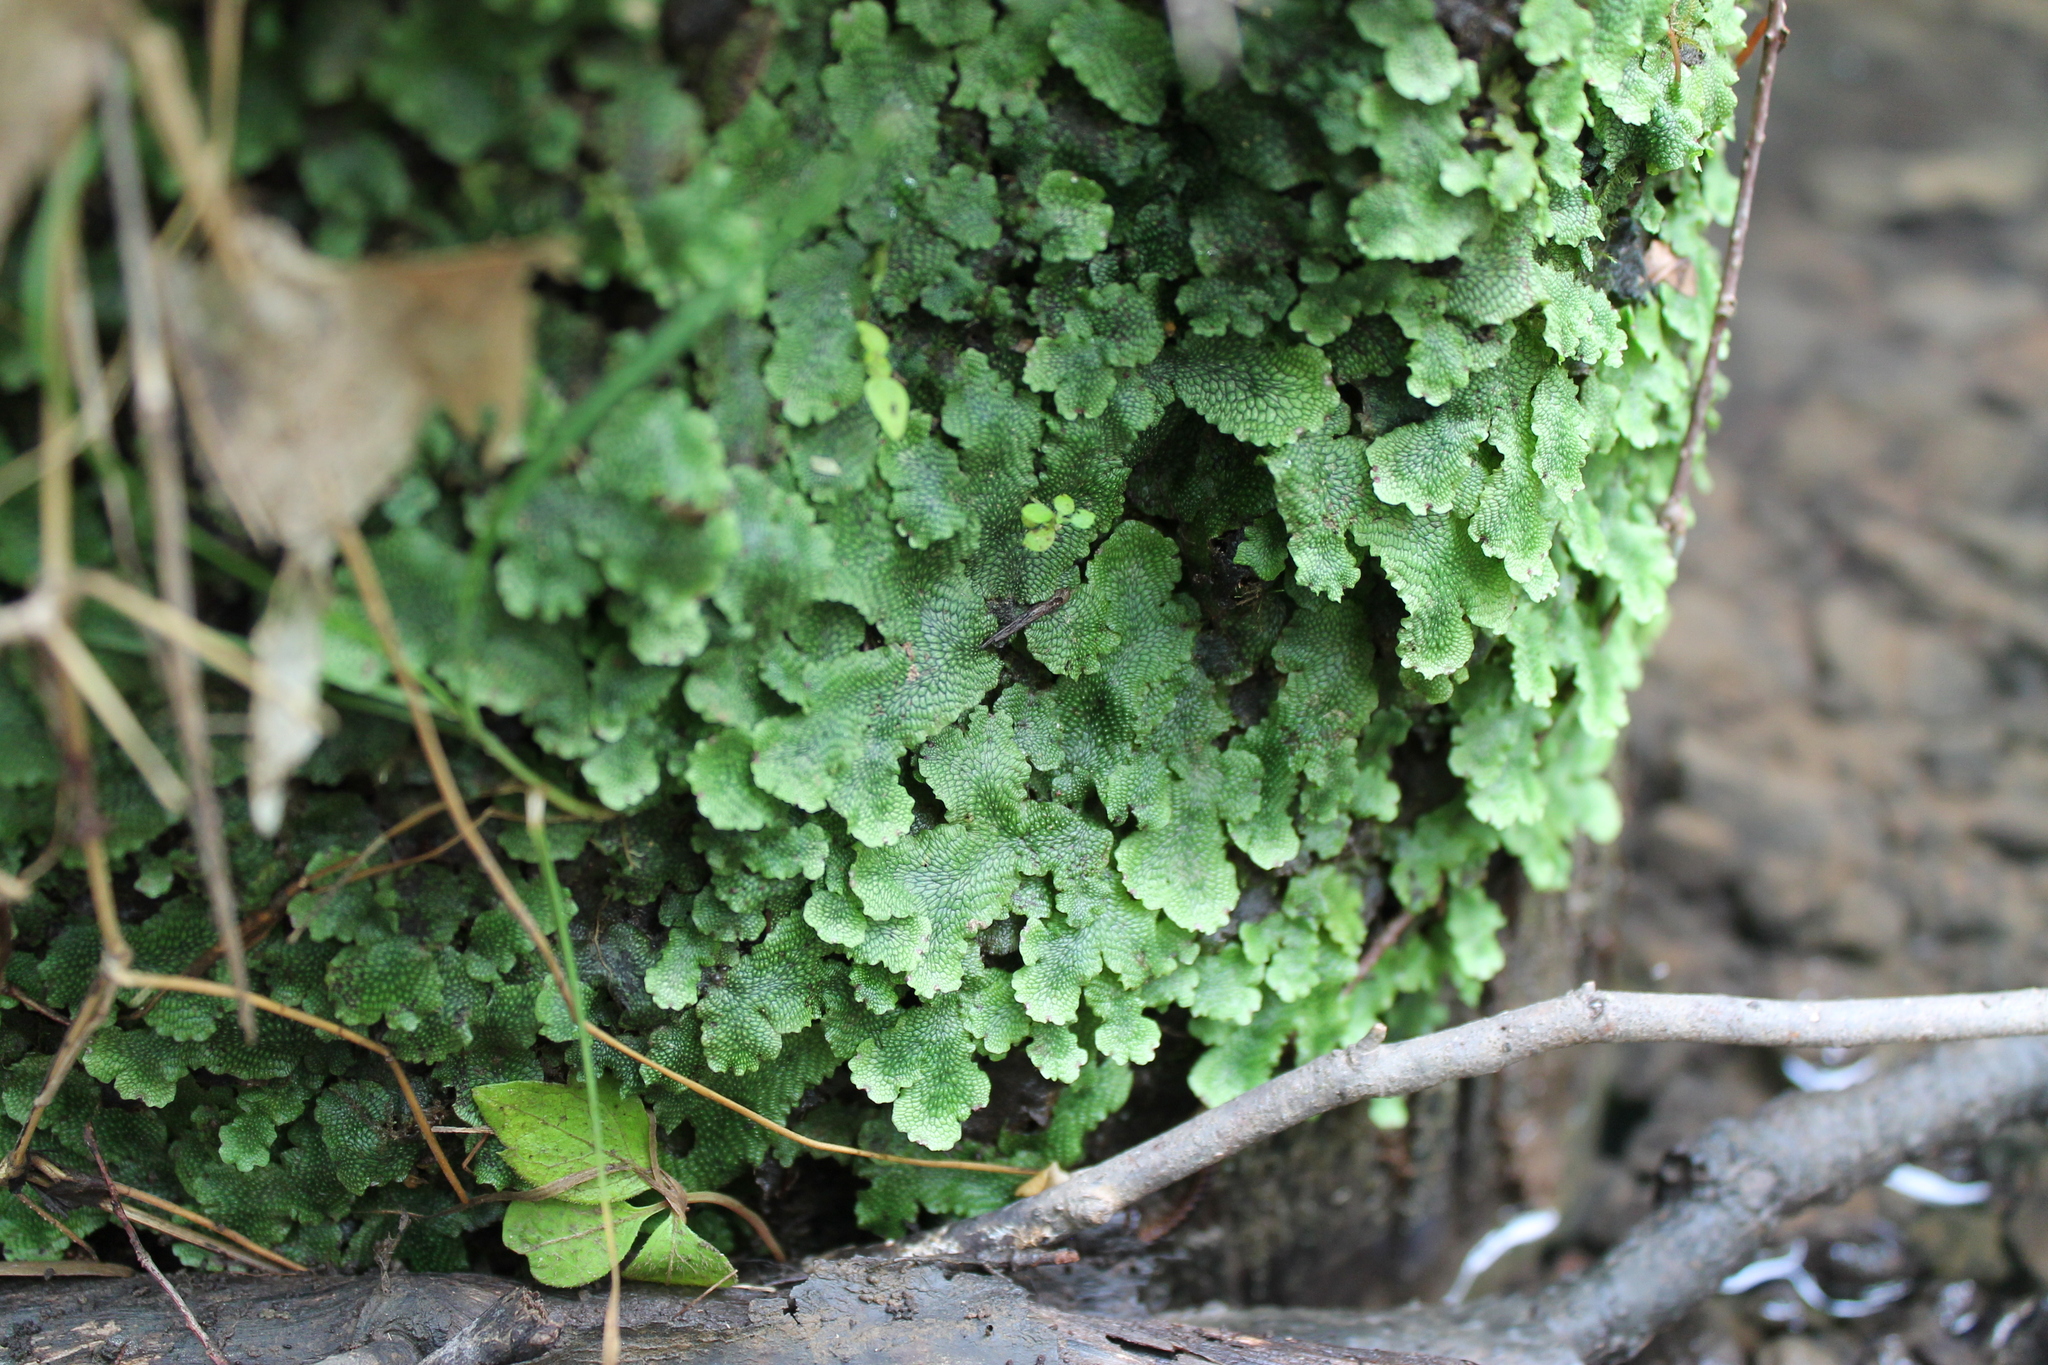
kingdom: Plantae
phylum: Marchantiophyta
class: Marchantiopsida
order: Marchantiales
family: Conocephalaceae
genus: Conocephalum
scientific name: Conocephalum salebrosum
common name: Cat-tongue liverwort
